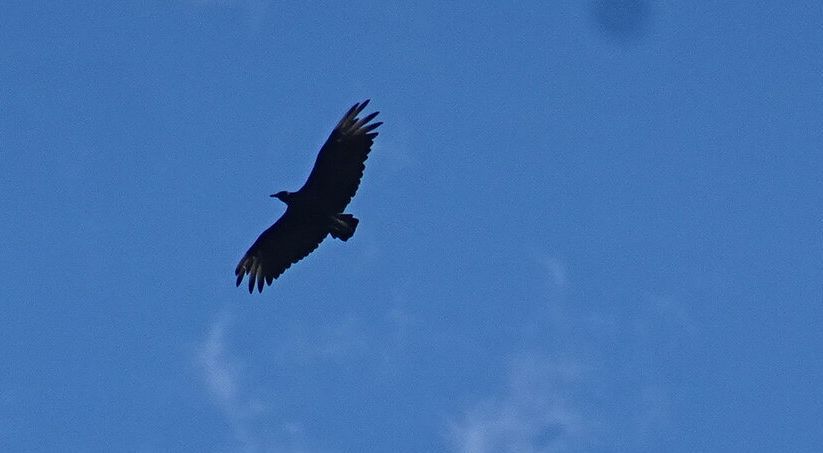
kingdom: Animalia
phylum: Chordata
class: Aves
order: Accipitriformes
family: Cathartidae
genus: Coragyps
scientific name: Coragyps atratus
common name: Black vulture
